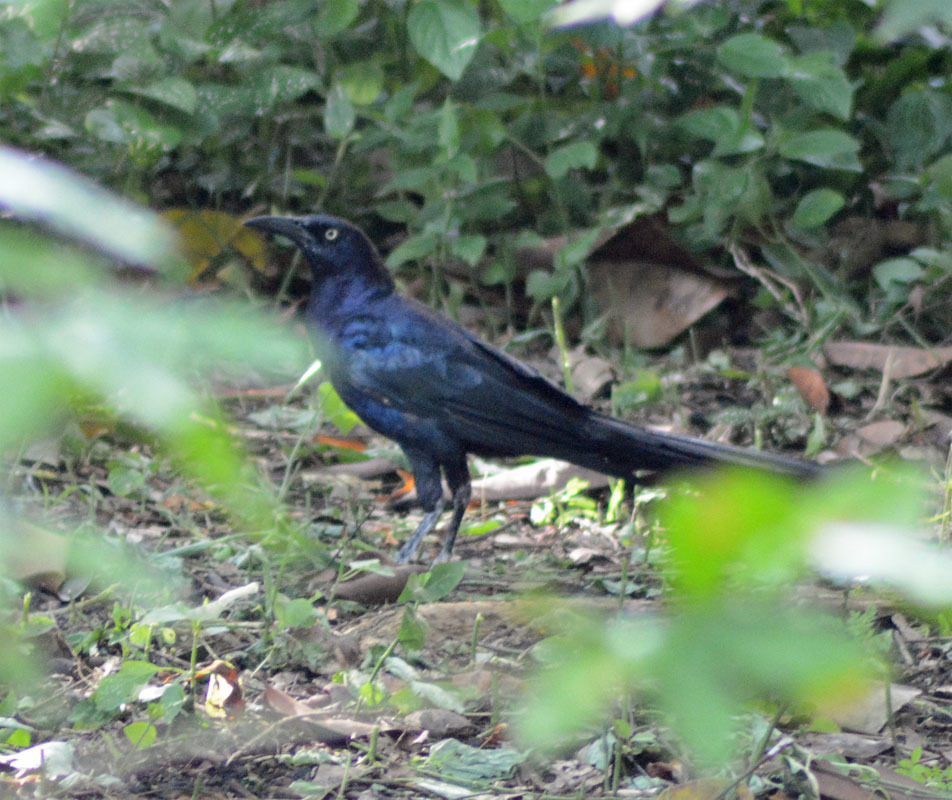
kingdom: Animalia
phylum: Chordata
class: Aves
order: Passeriformes
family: Icteridae
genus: Quiscalus
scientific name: Quiscalus mexicanus
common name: Great-tailed grackle
